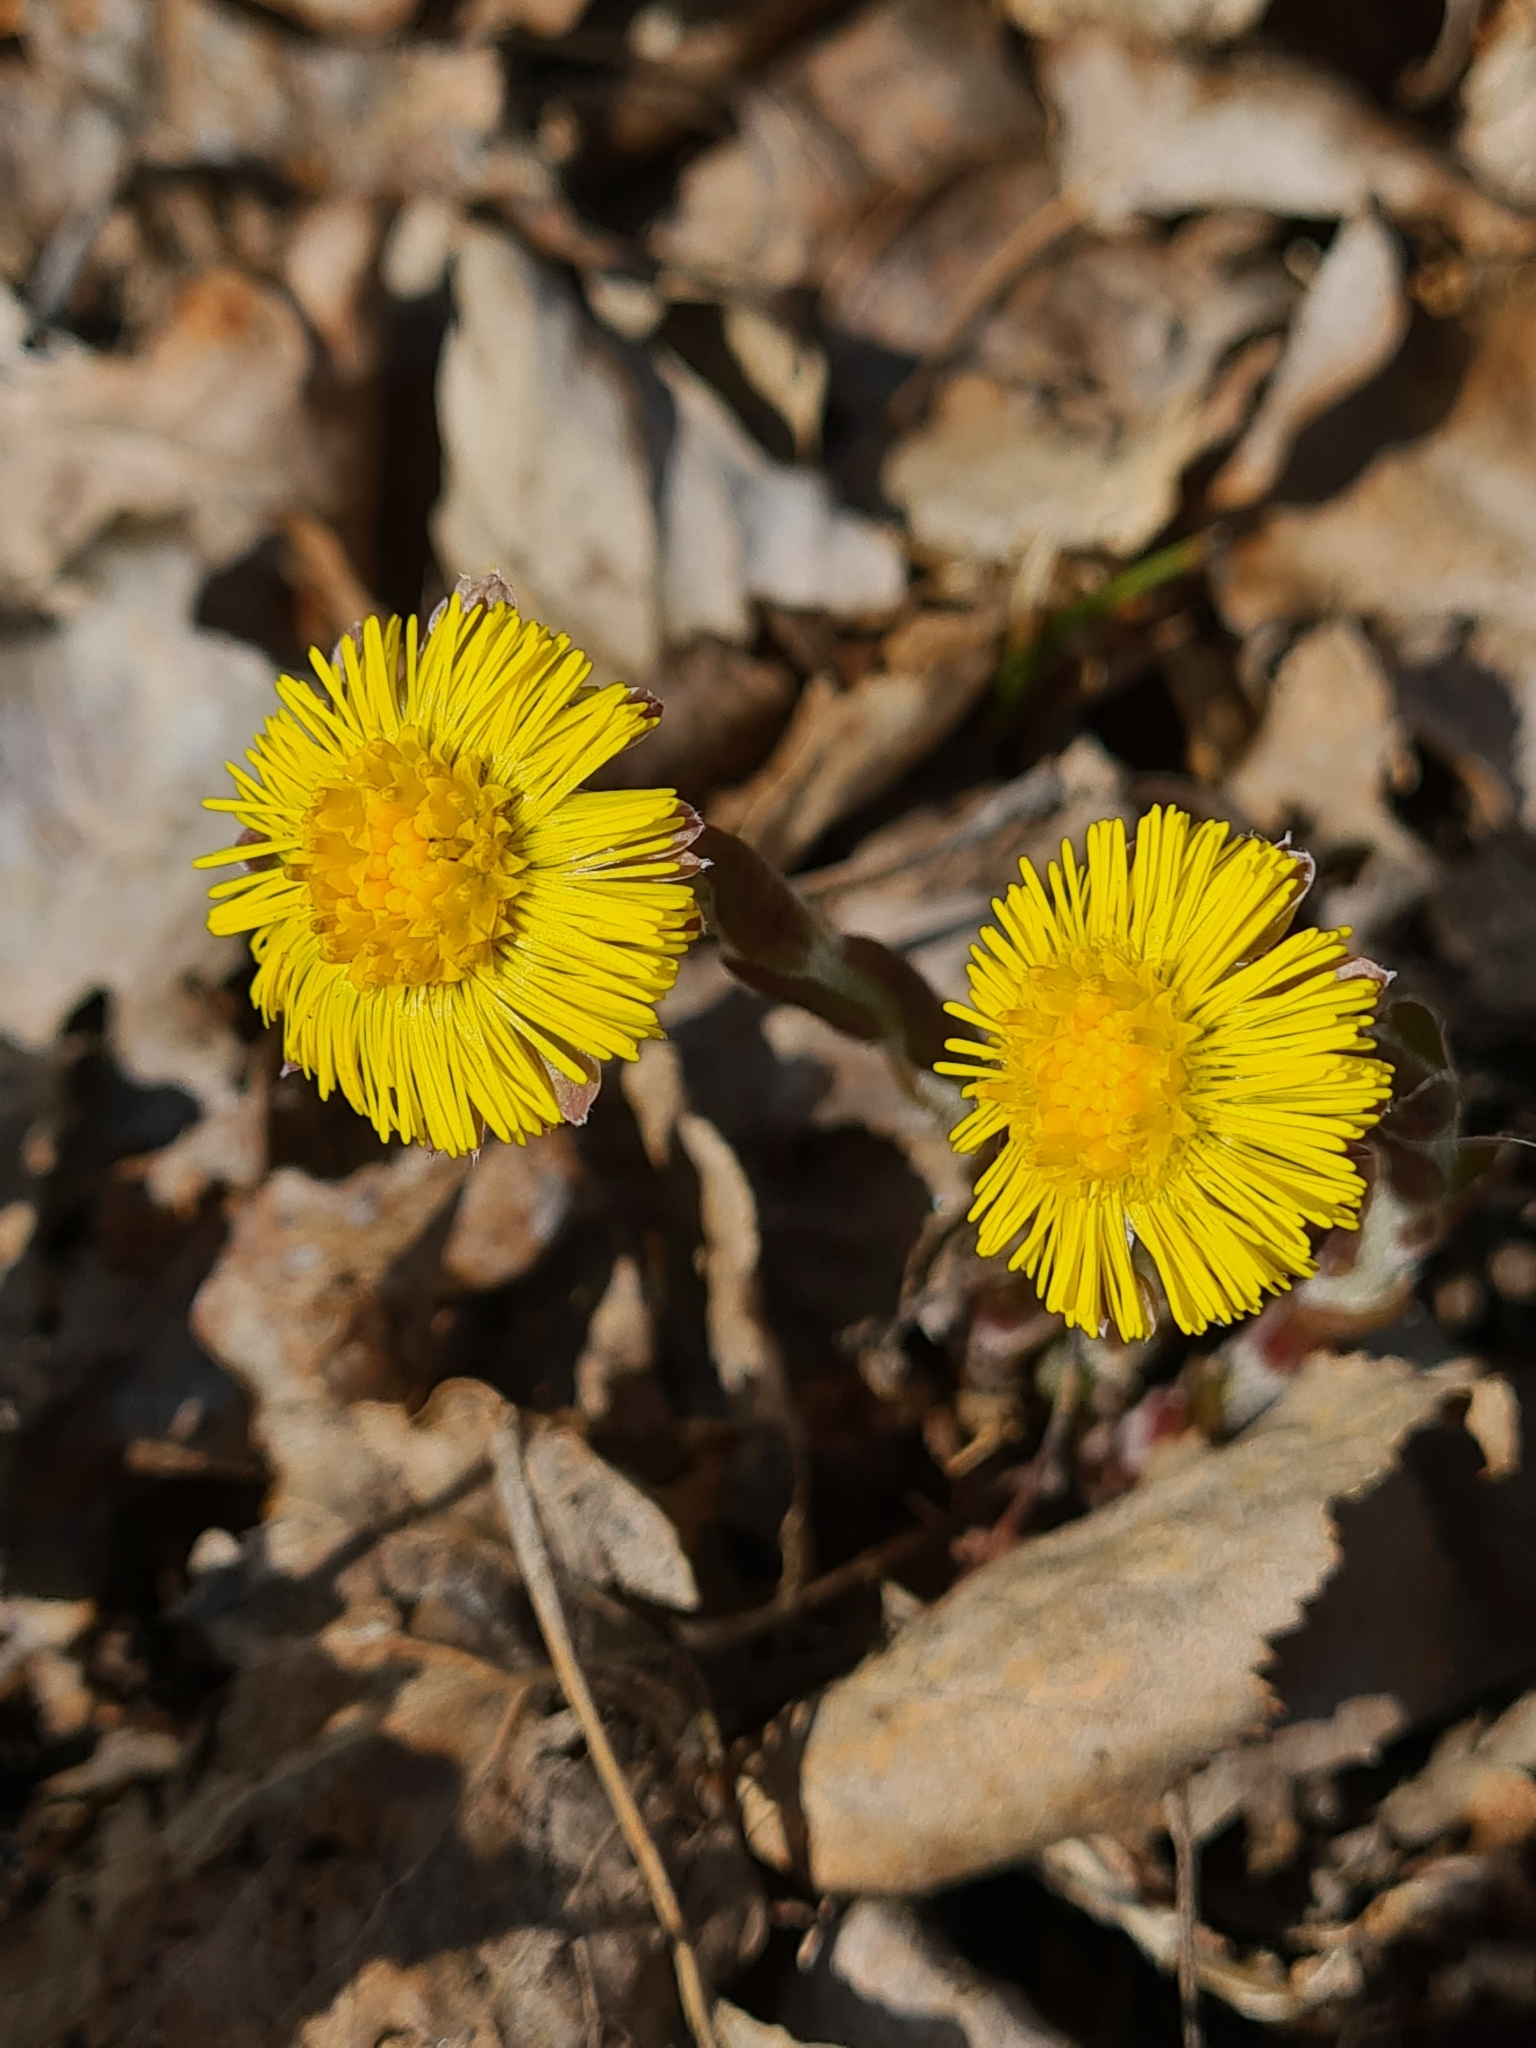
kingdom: Plantae
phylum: Tracheophyta
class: Magnoliopsida
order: Asterales
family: Asteraceae
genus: Tussilago
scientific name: Tussilago farfara
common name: Coltsfoot
